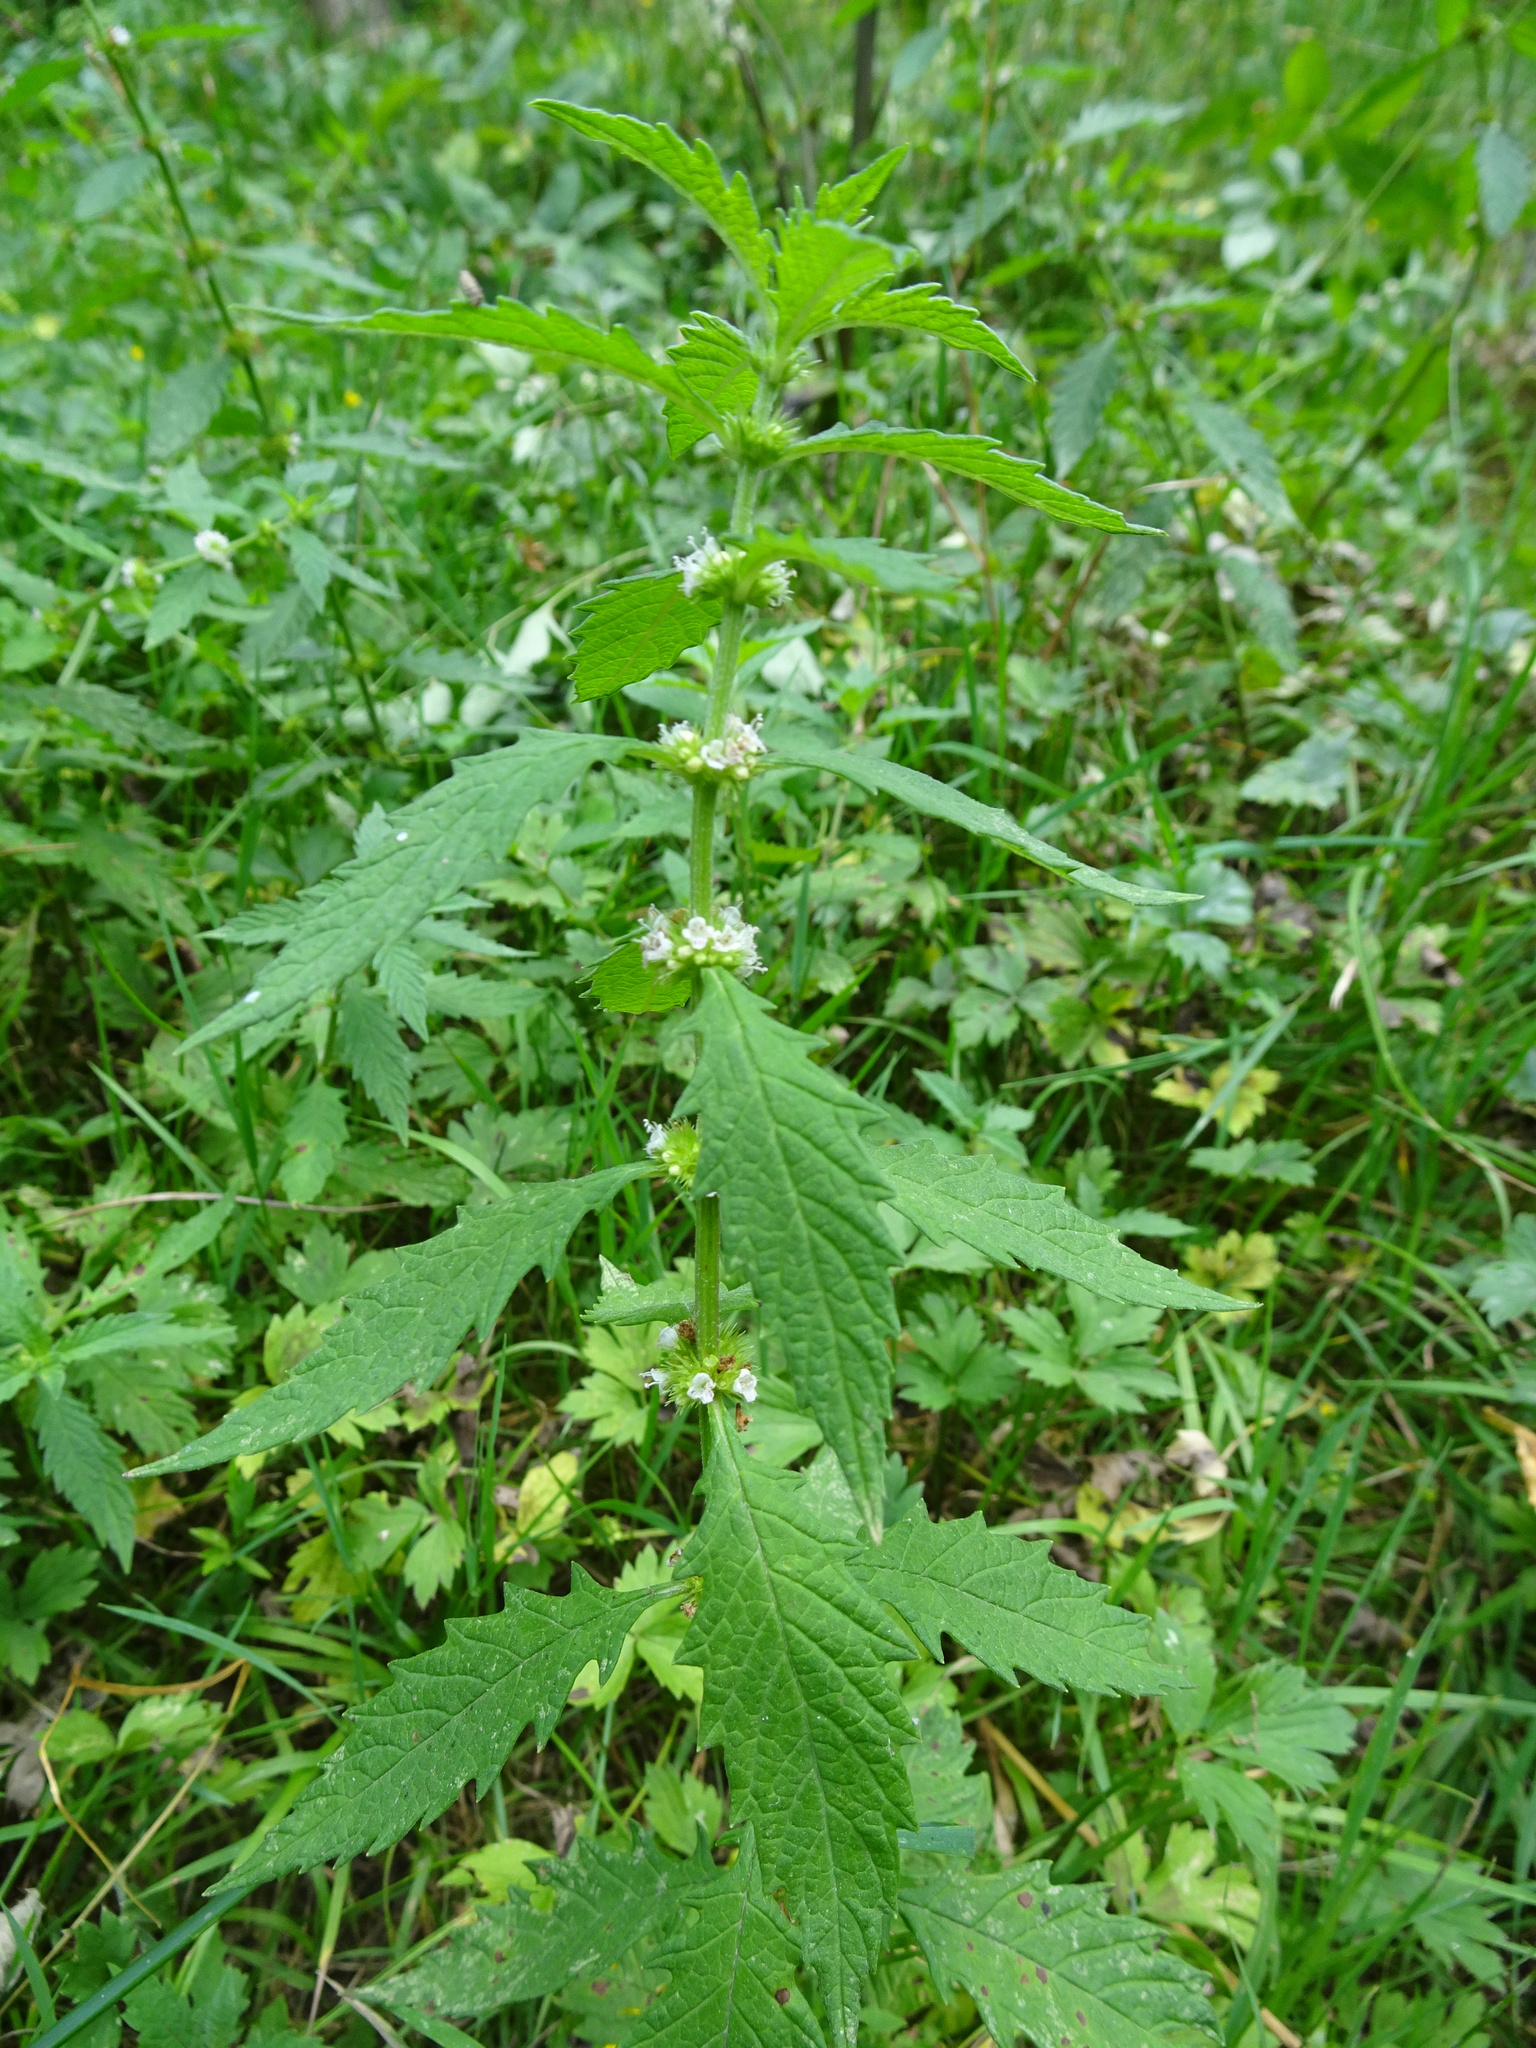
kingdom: Plantae
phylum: Tracheophyta
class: Magnoliopsida
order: Lamiales
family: Lamiaceae
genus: Lycopus
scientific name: Lycopus europaeus
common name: European bugleweed
